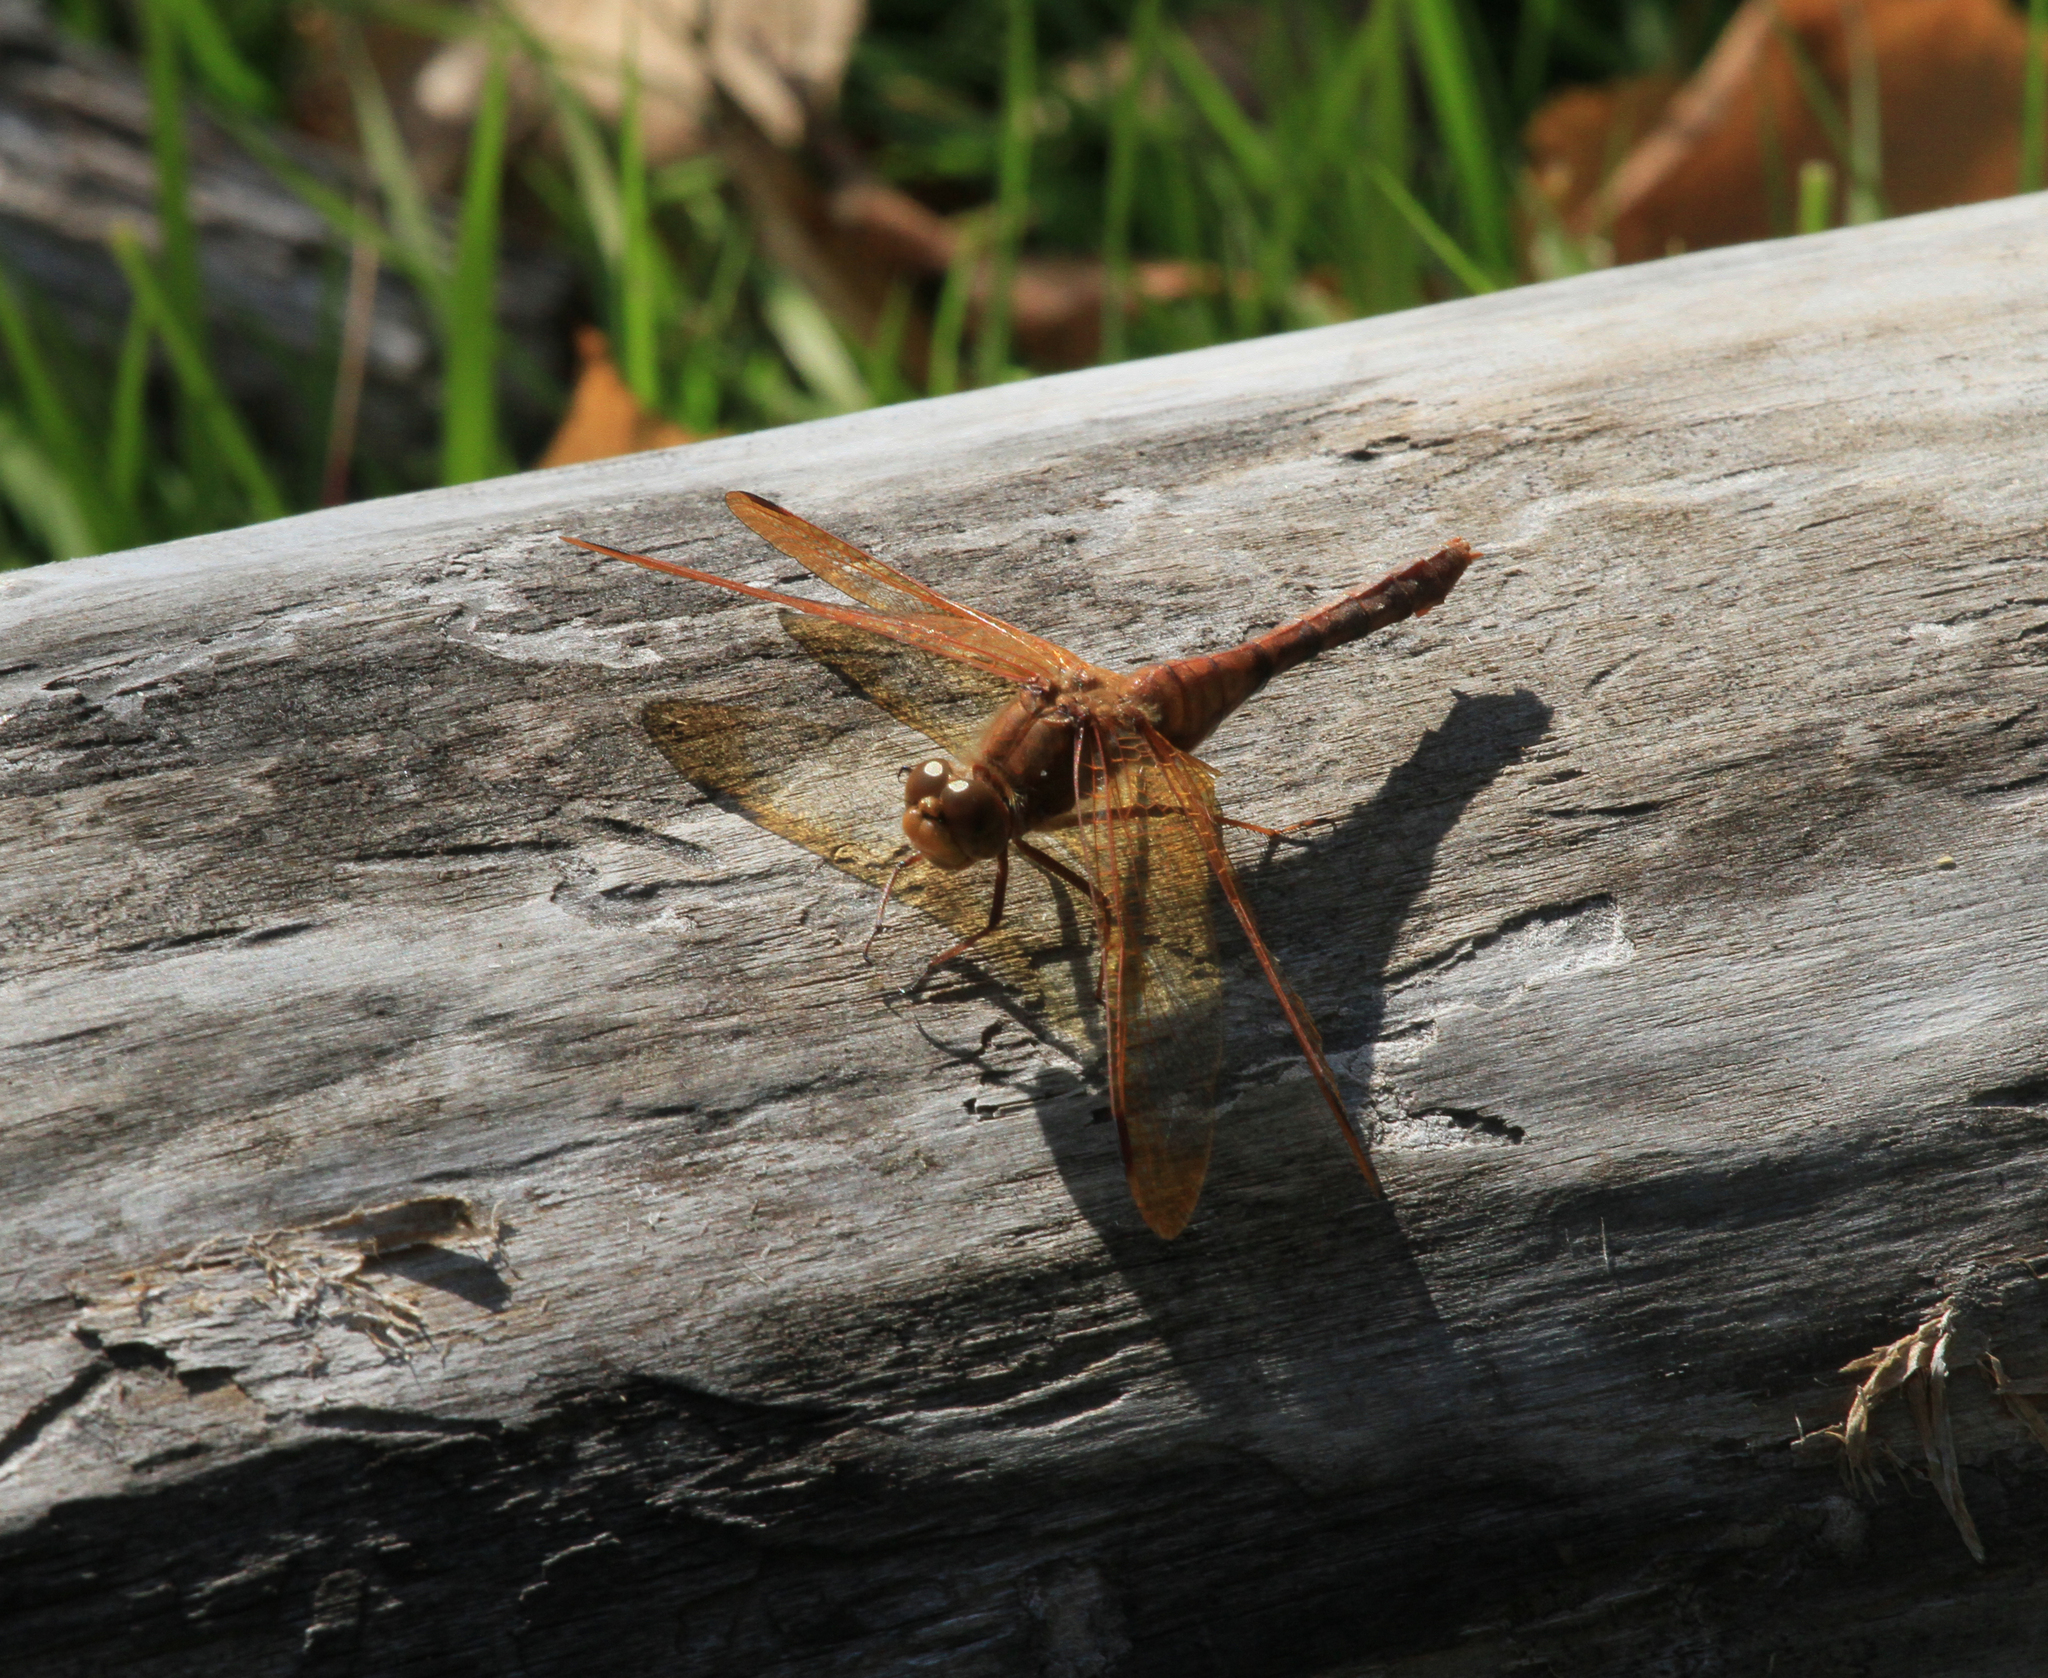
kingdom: Animalia
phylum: Arthropoda
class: Insecta
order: Odonata
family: Libellulidae
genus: Sympetrum
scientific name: Sympetrum croceolum
